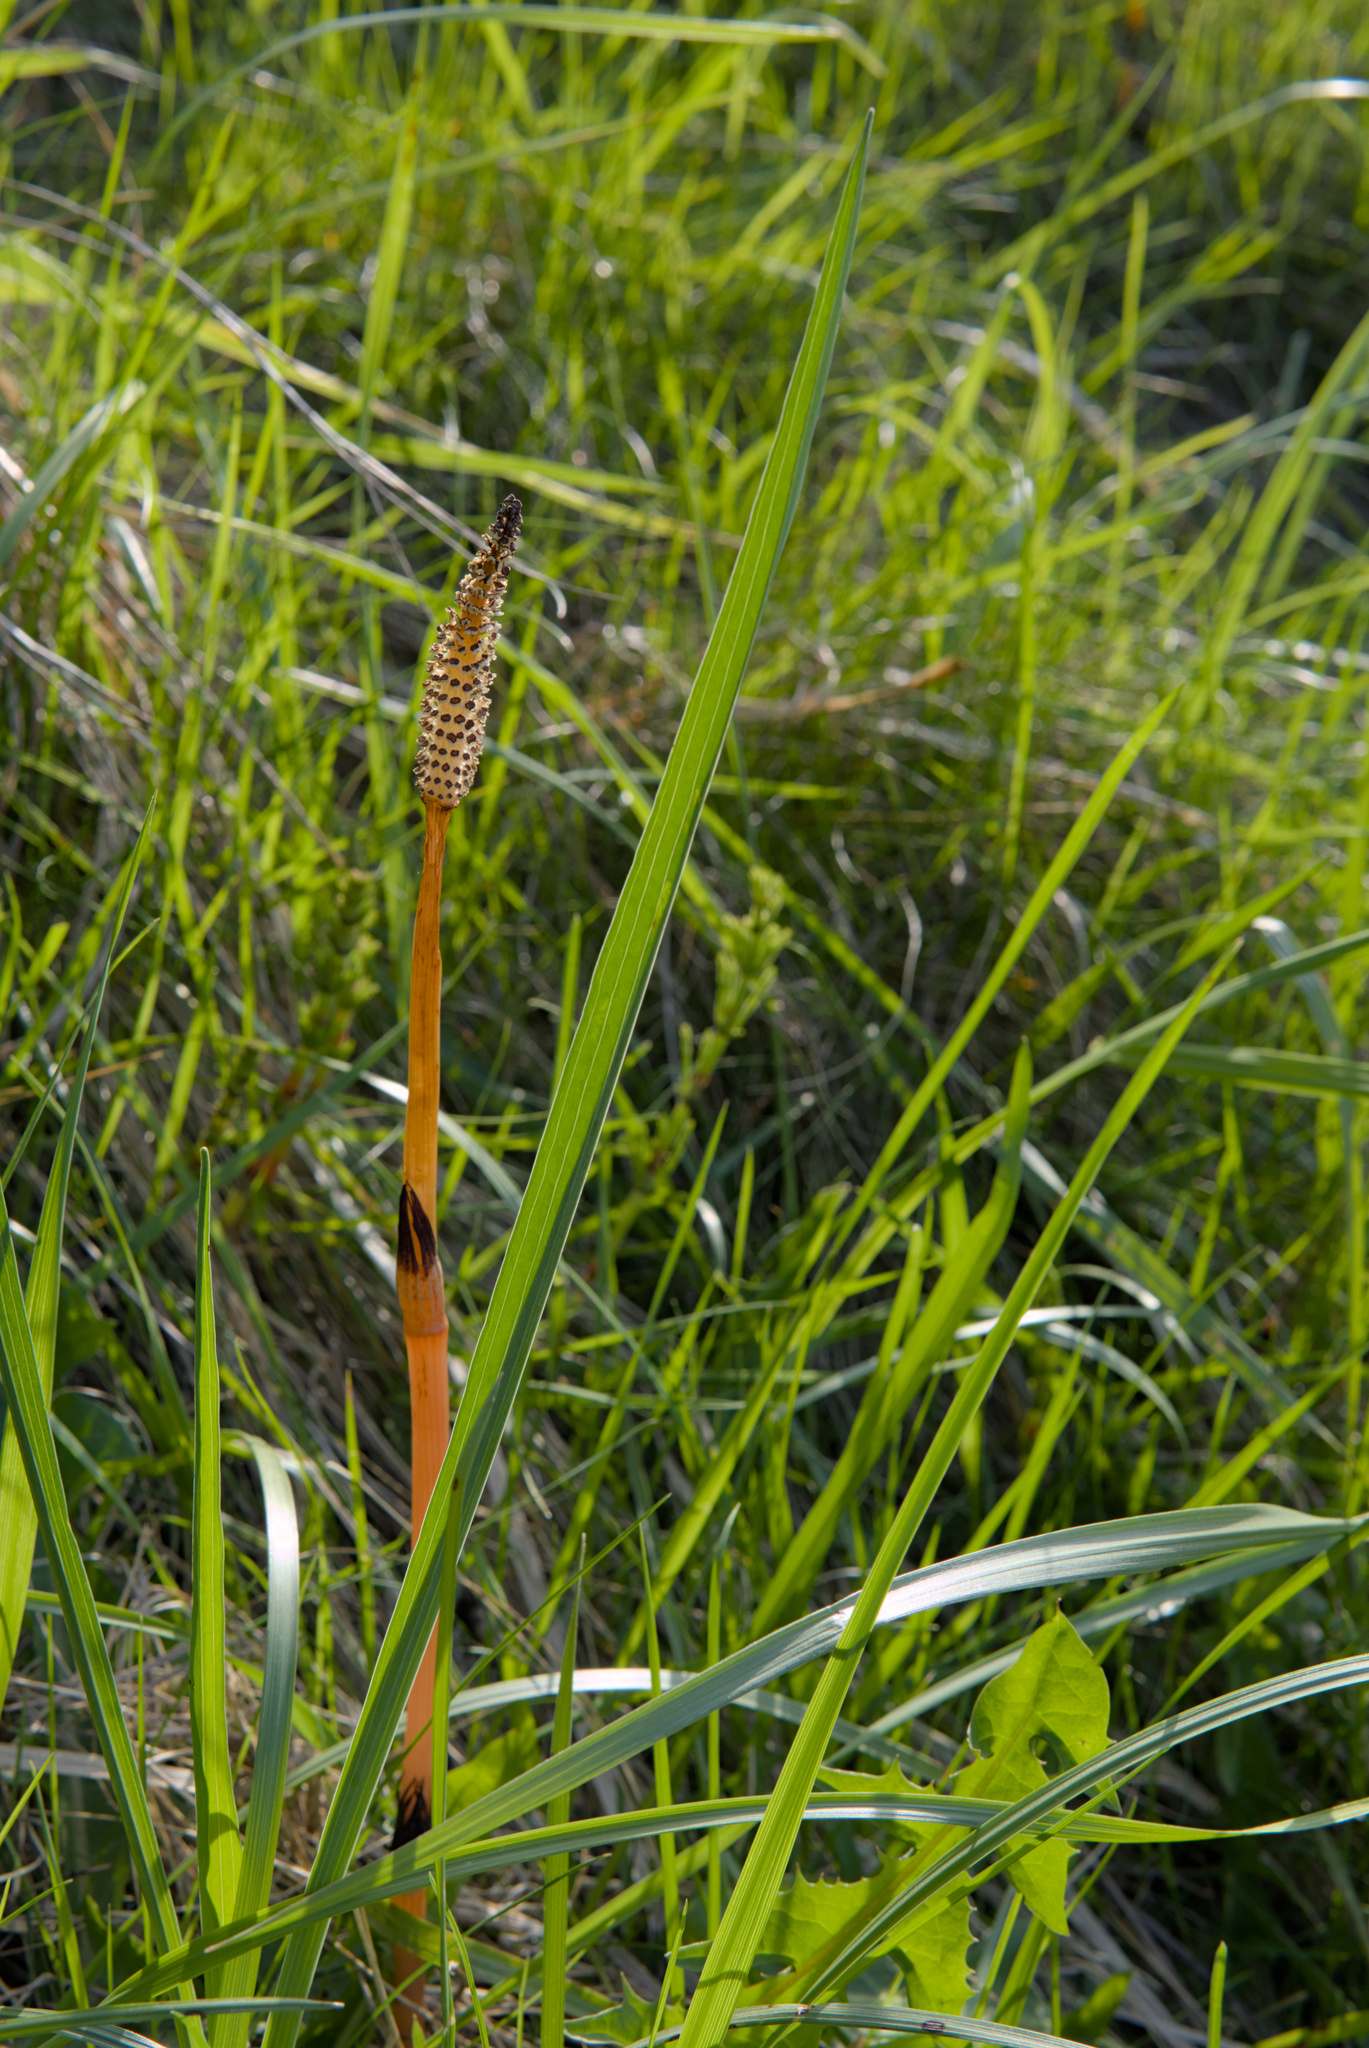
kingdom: Plantae
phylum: Tracheophyta
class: Polypodiopsida
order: Equisetales
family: Equisetaceae
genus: Equisetum
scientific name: Equisetum arvense
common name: Field horsetail
